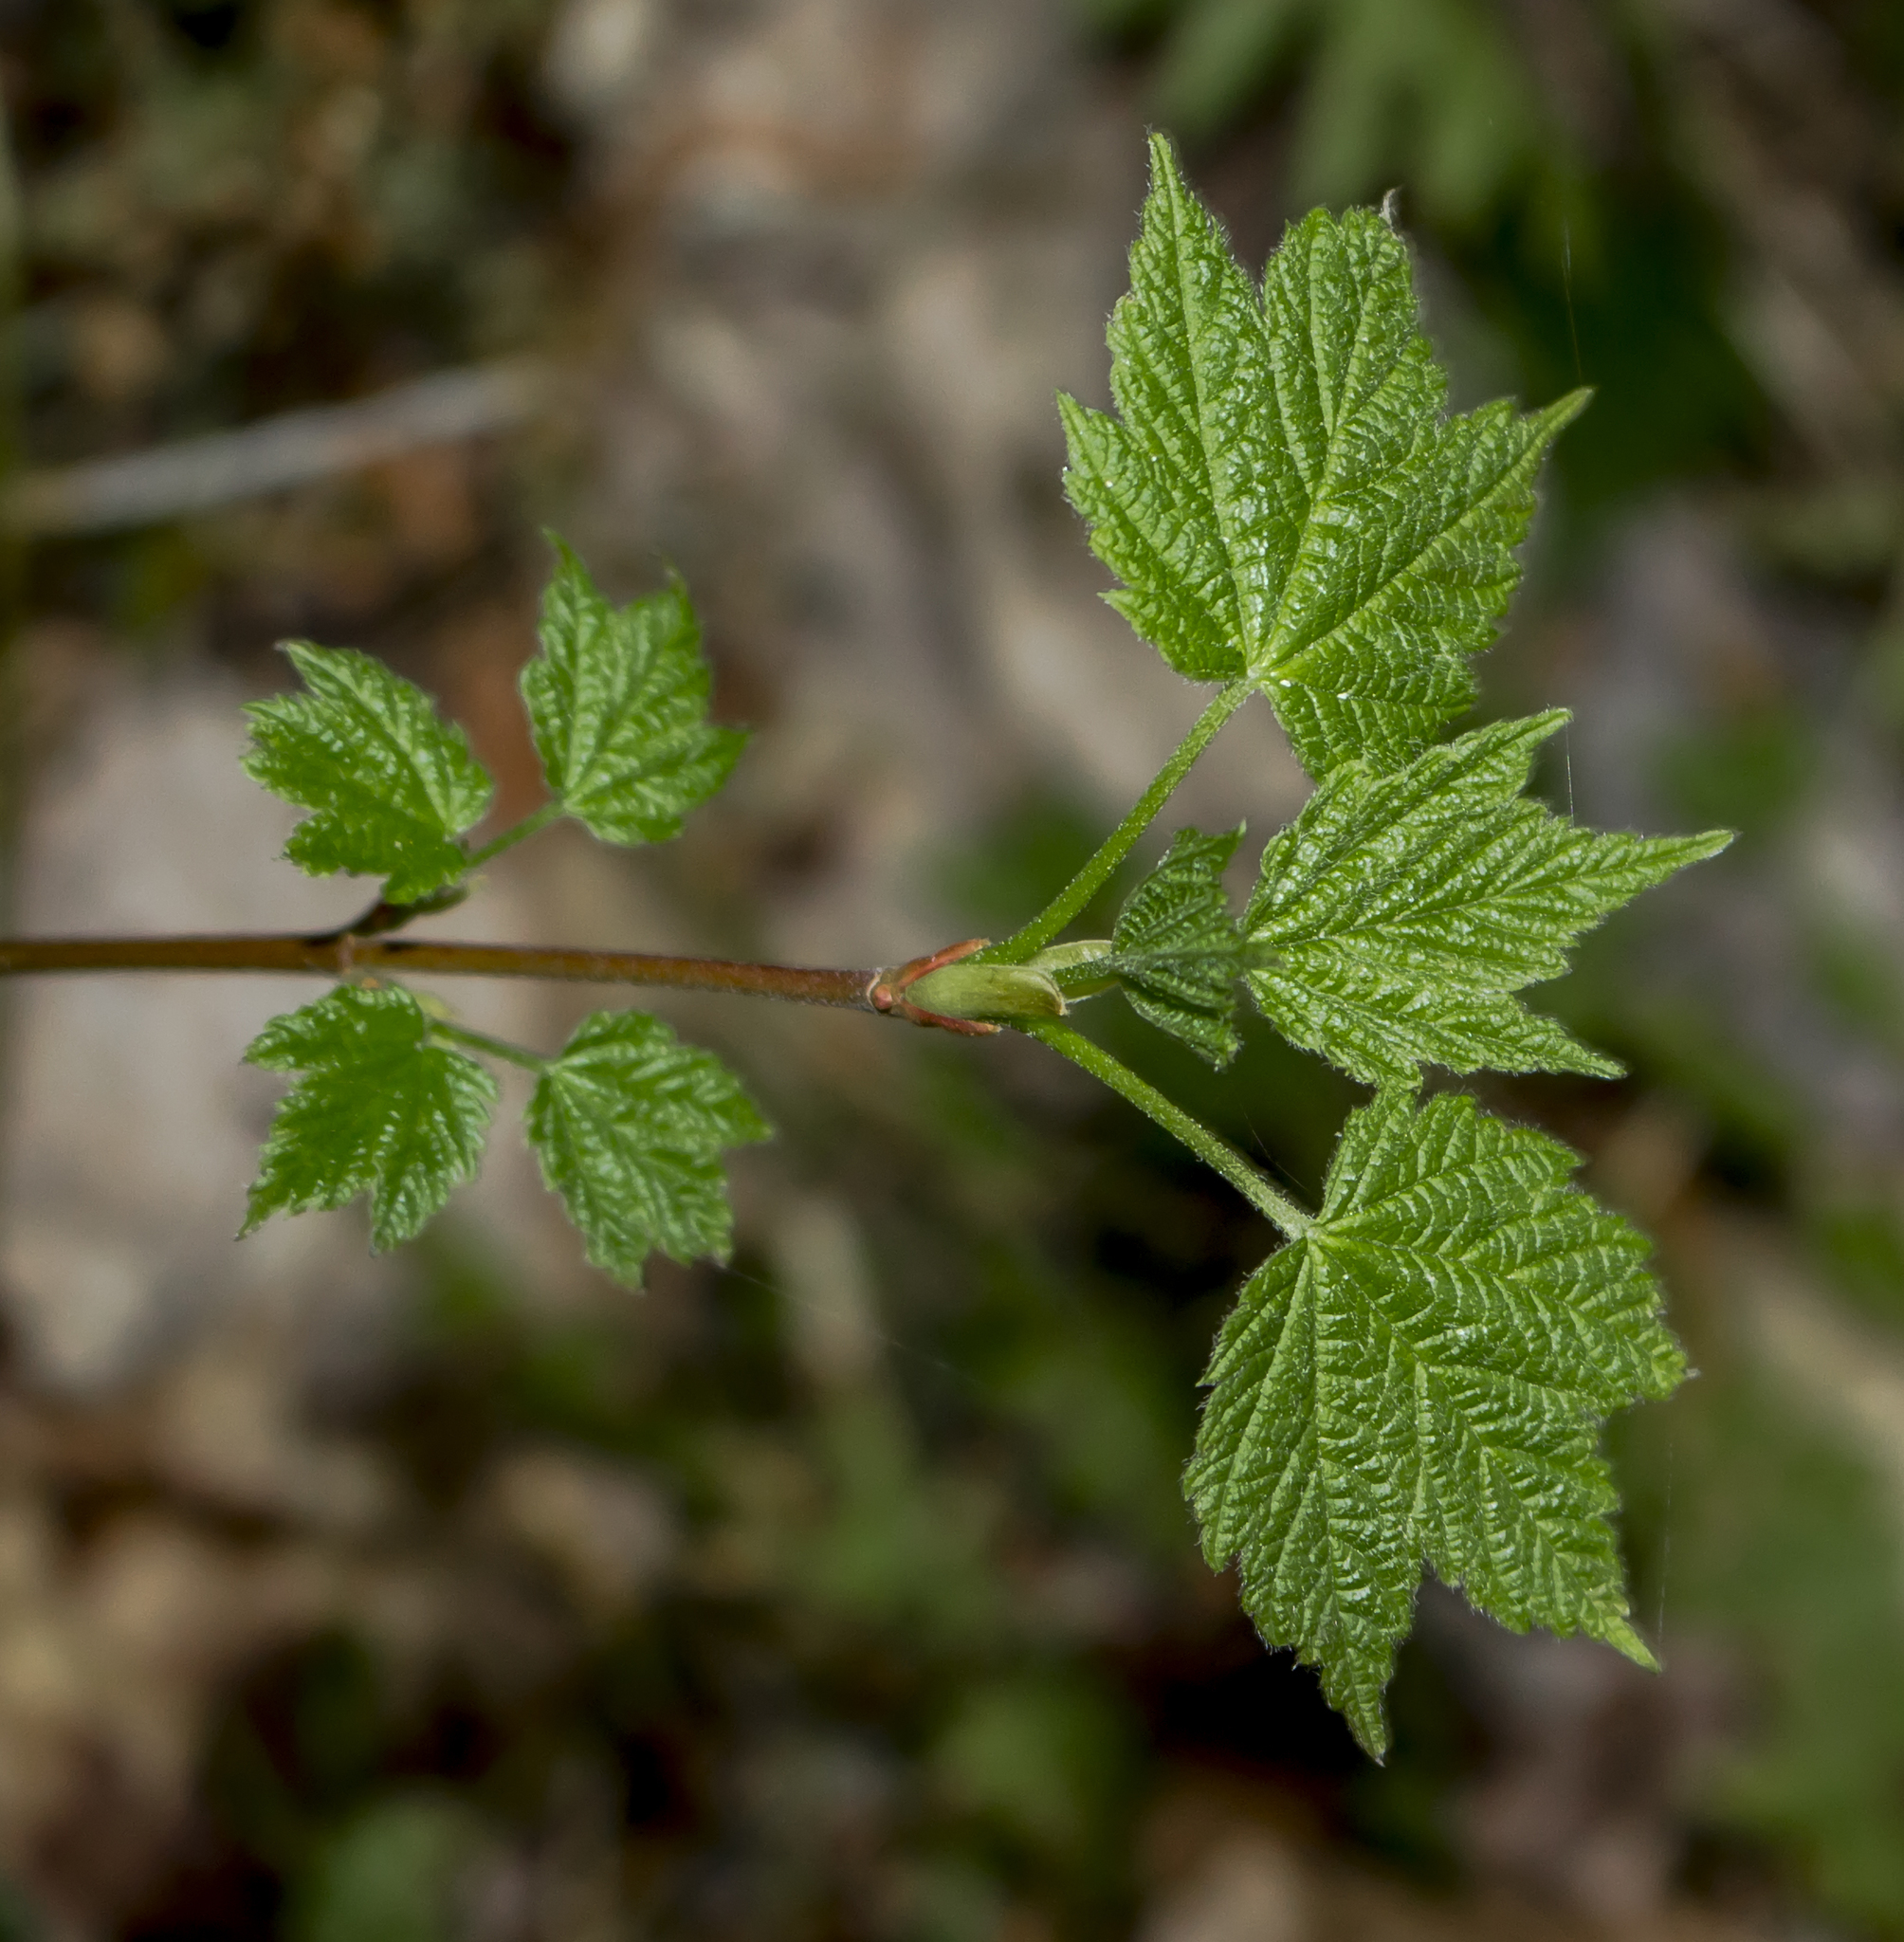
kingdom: Plantae
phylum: Tracheophyta
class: Magnoliopsida
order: Sapindales
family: Sapindaceae
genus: Acer
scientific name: Acer spicatum
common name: Mountain maple
